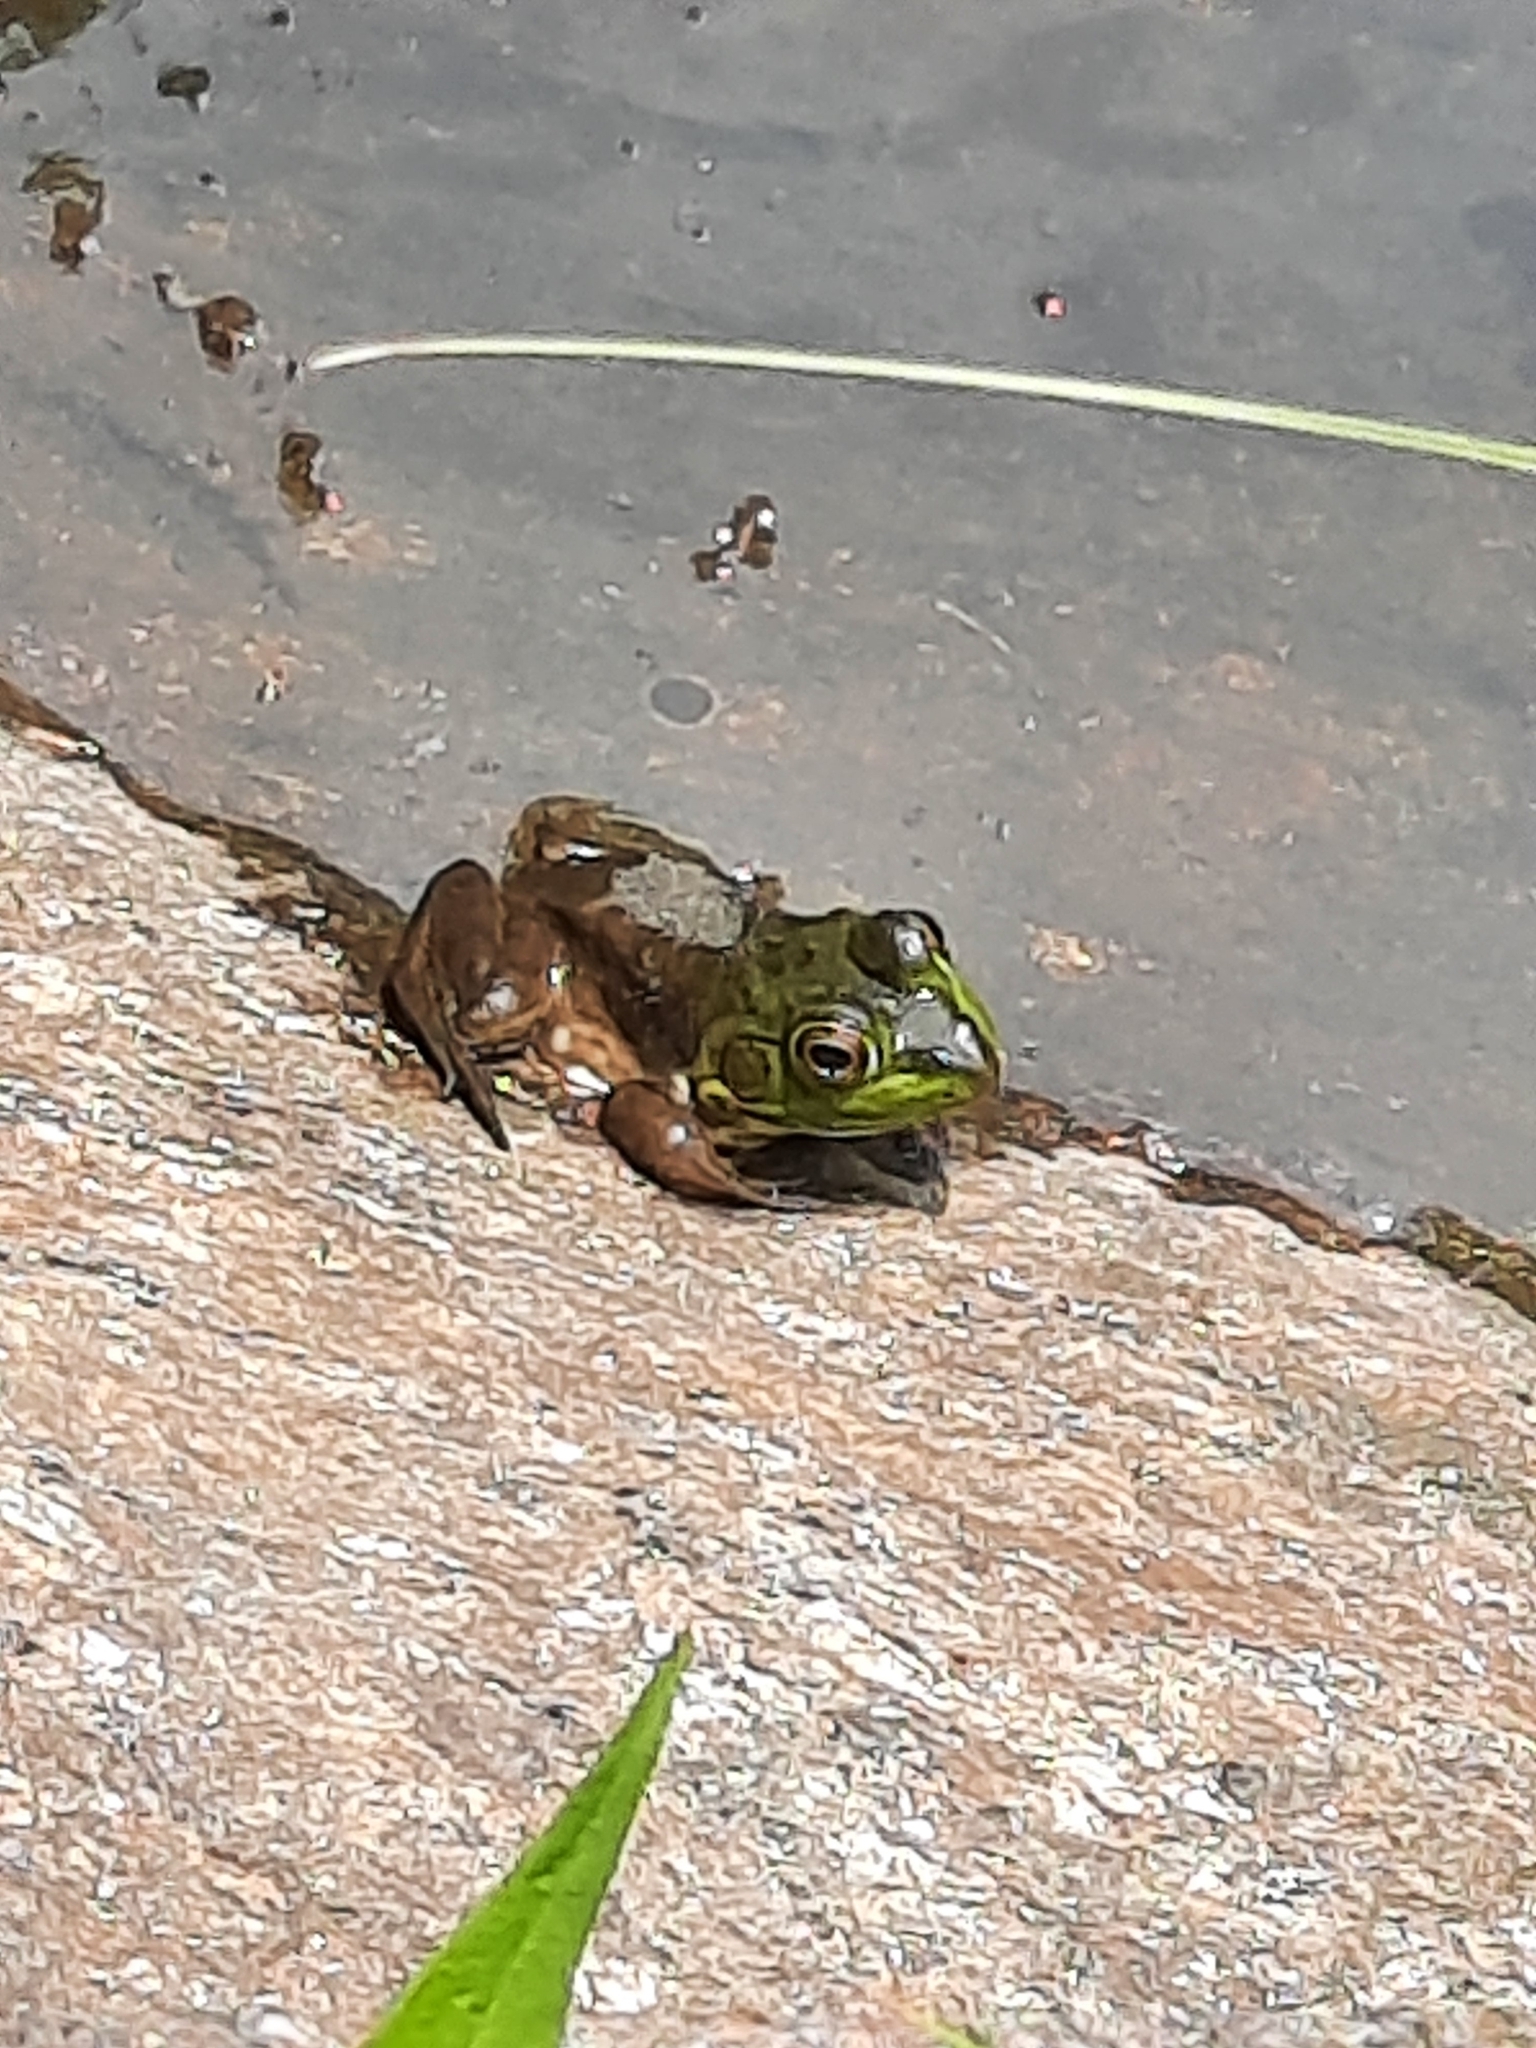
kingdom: Animalia
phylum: Chordata
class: Amphibia
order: Anura
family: Ranidae
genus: Lithobates
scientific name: Lithobates catesbeianus
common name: American bullfrog
